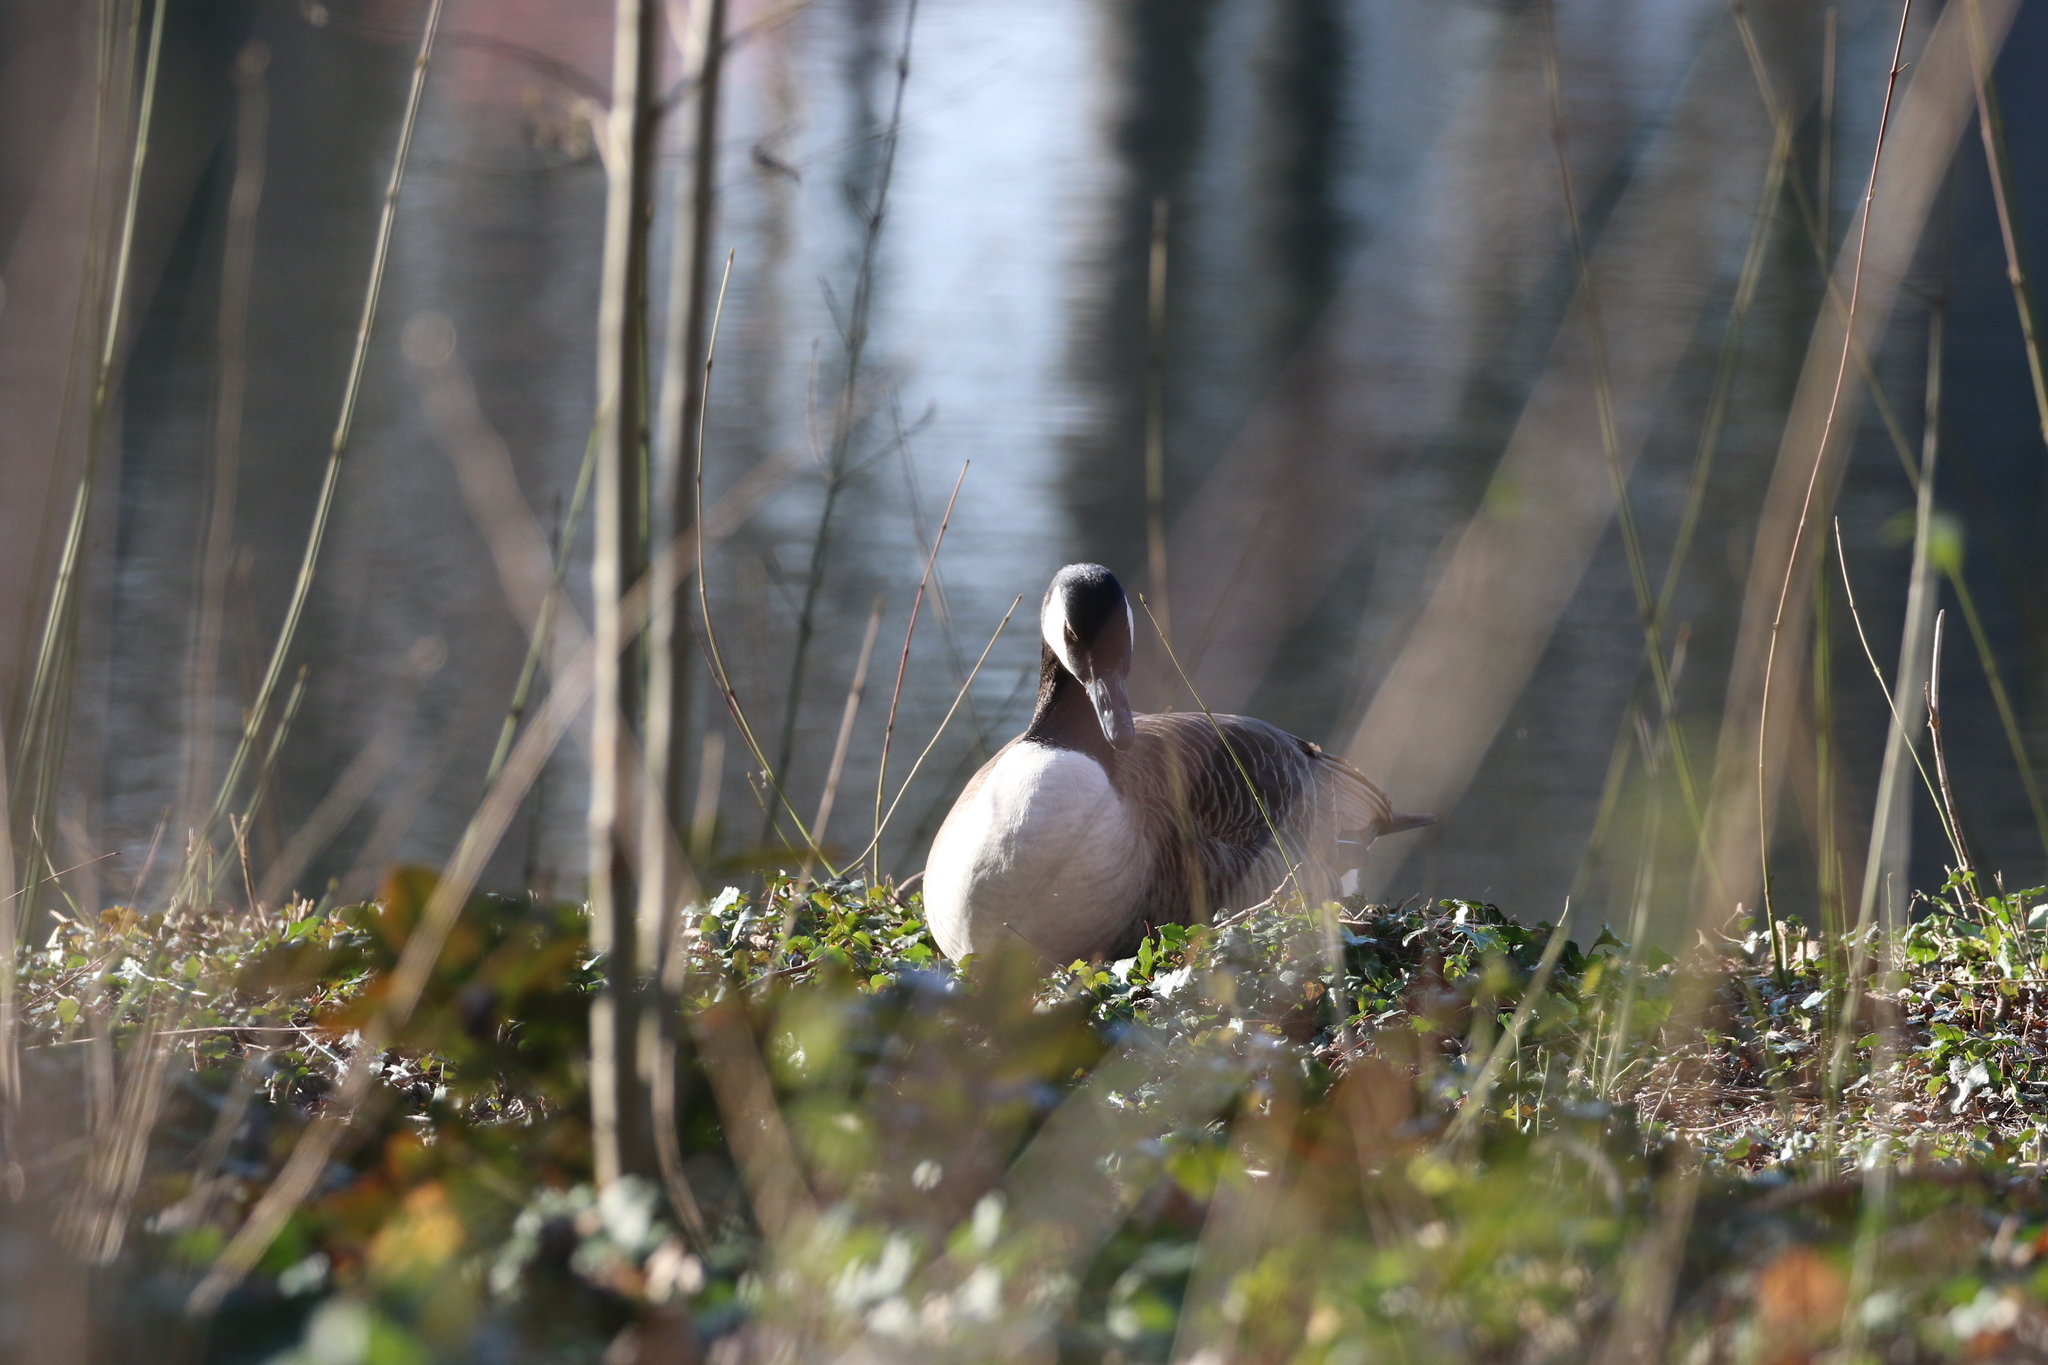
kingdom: Animalia
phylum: Chordata
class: Aves
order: Anseriformes
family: Anatidae
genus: Branta
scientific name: Branta canadensis
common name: Canada goose
